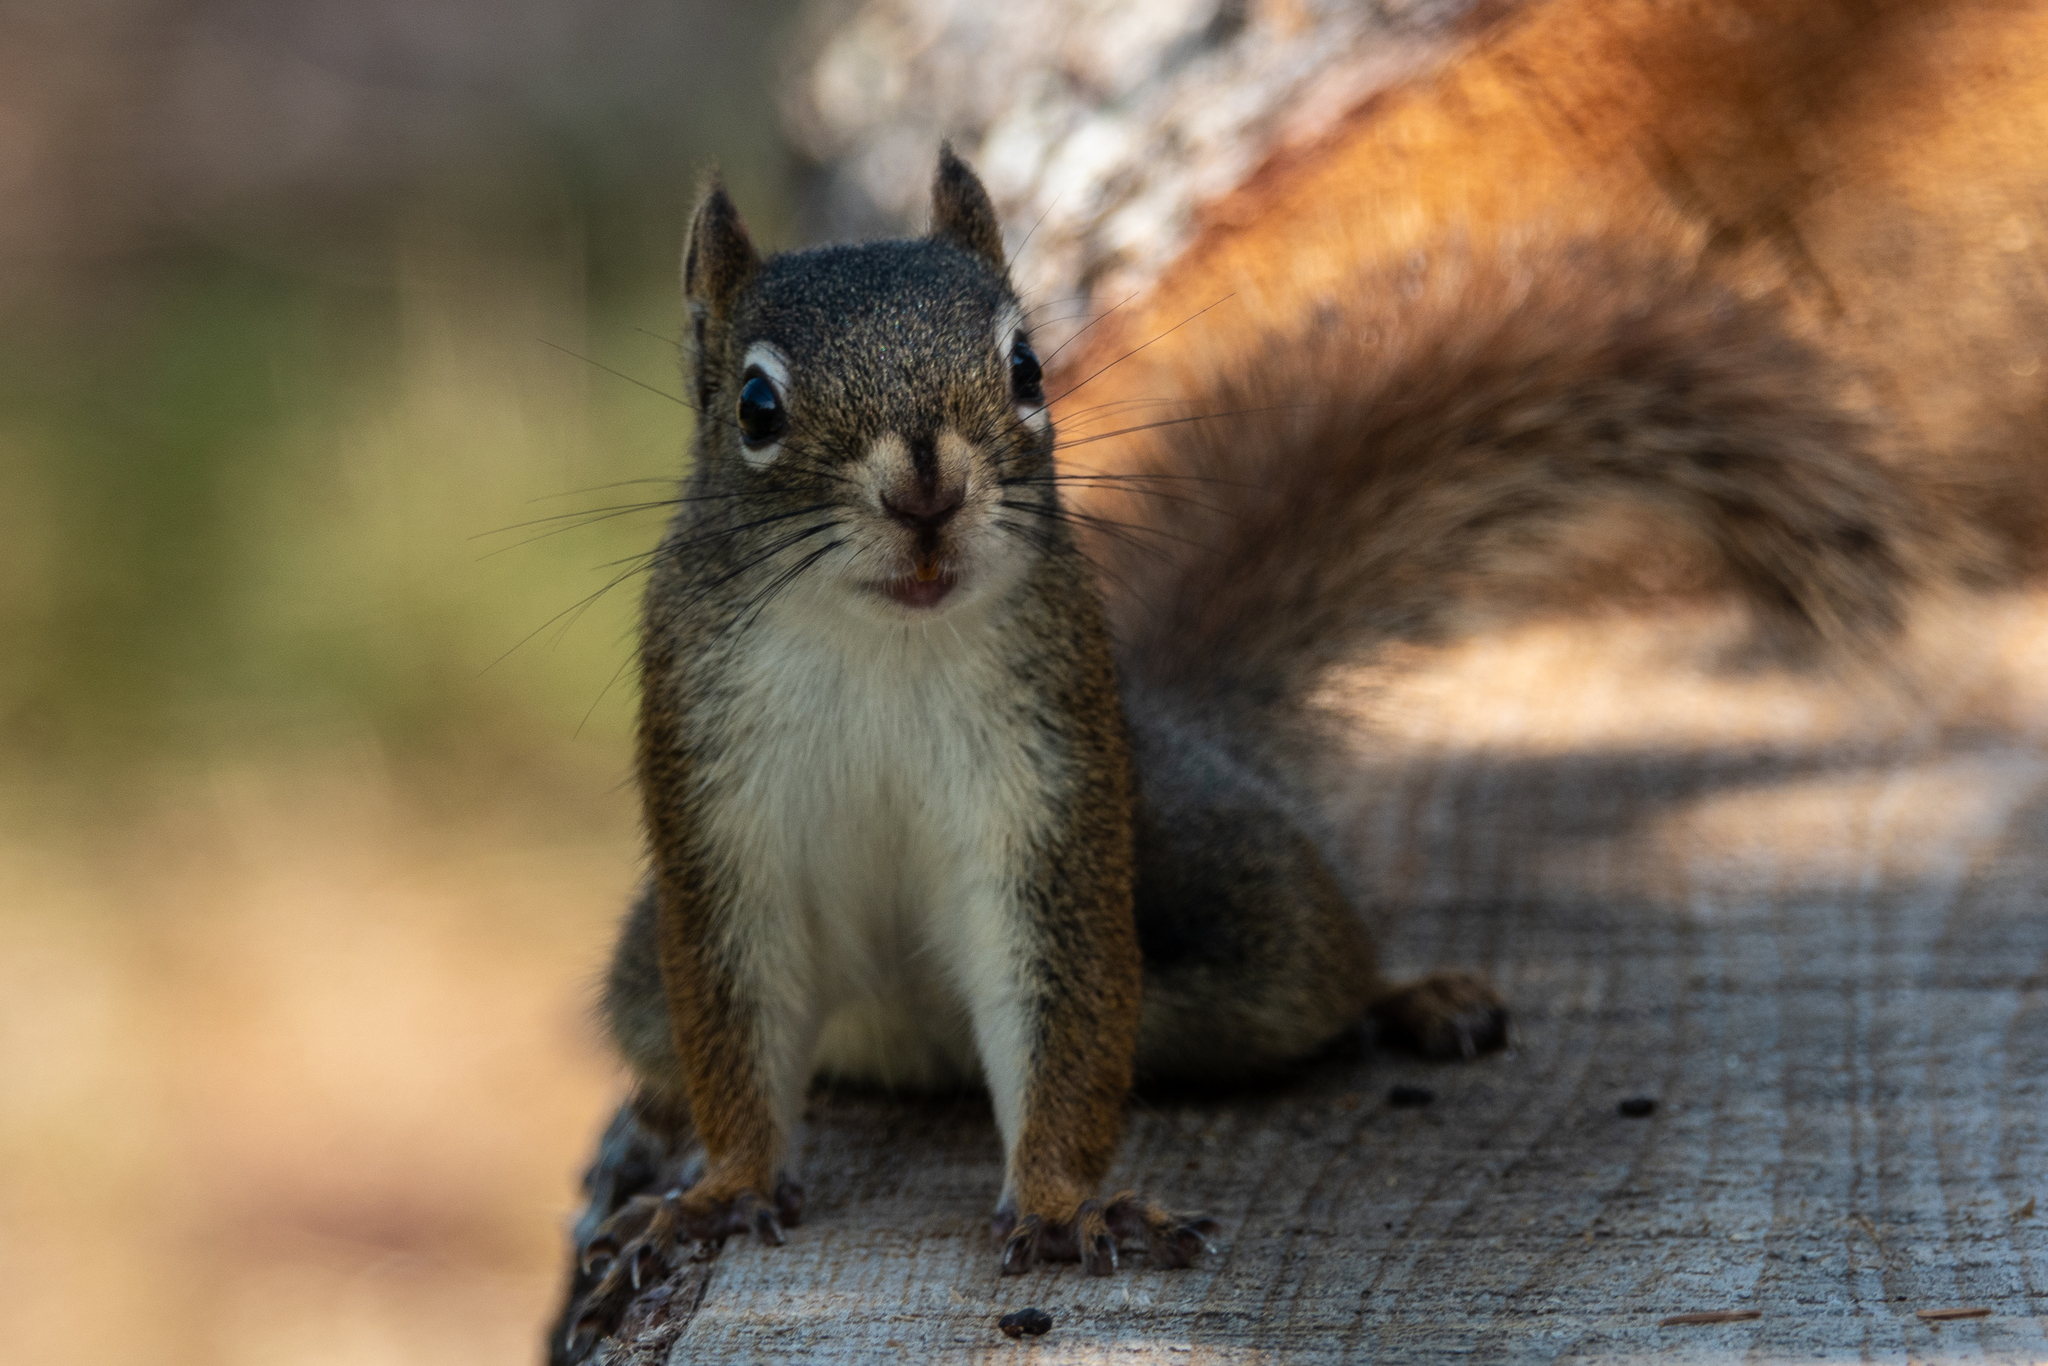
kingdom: Animalia
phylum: Chordata
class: Mammalia
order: Rodentia
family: Sciuridae
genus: Tamiasciurus
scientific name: Tamiasciurus hudsonicus
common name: Red squirrel
